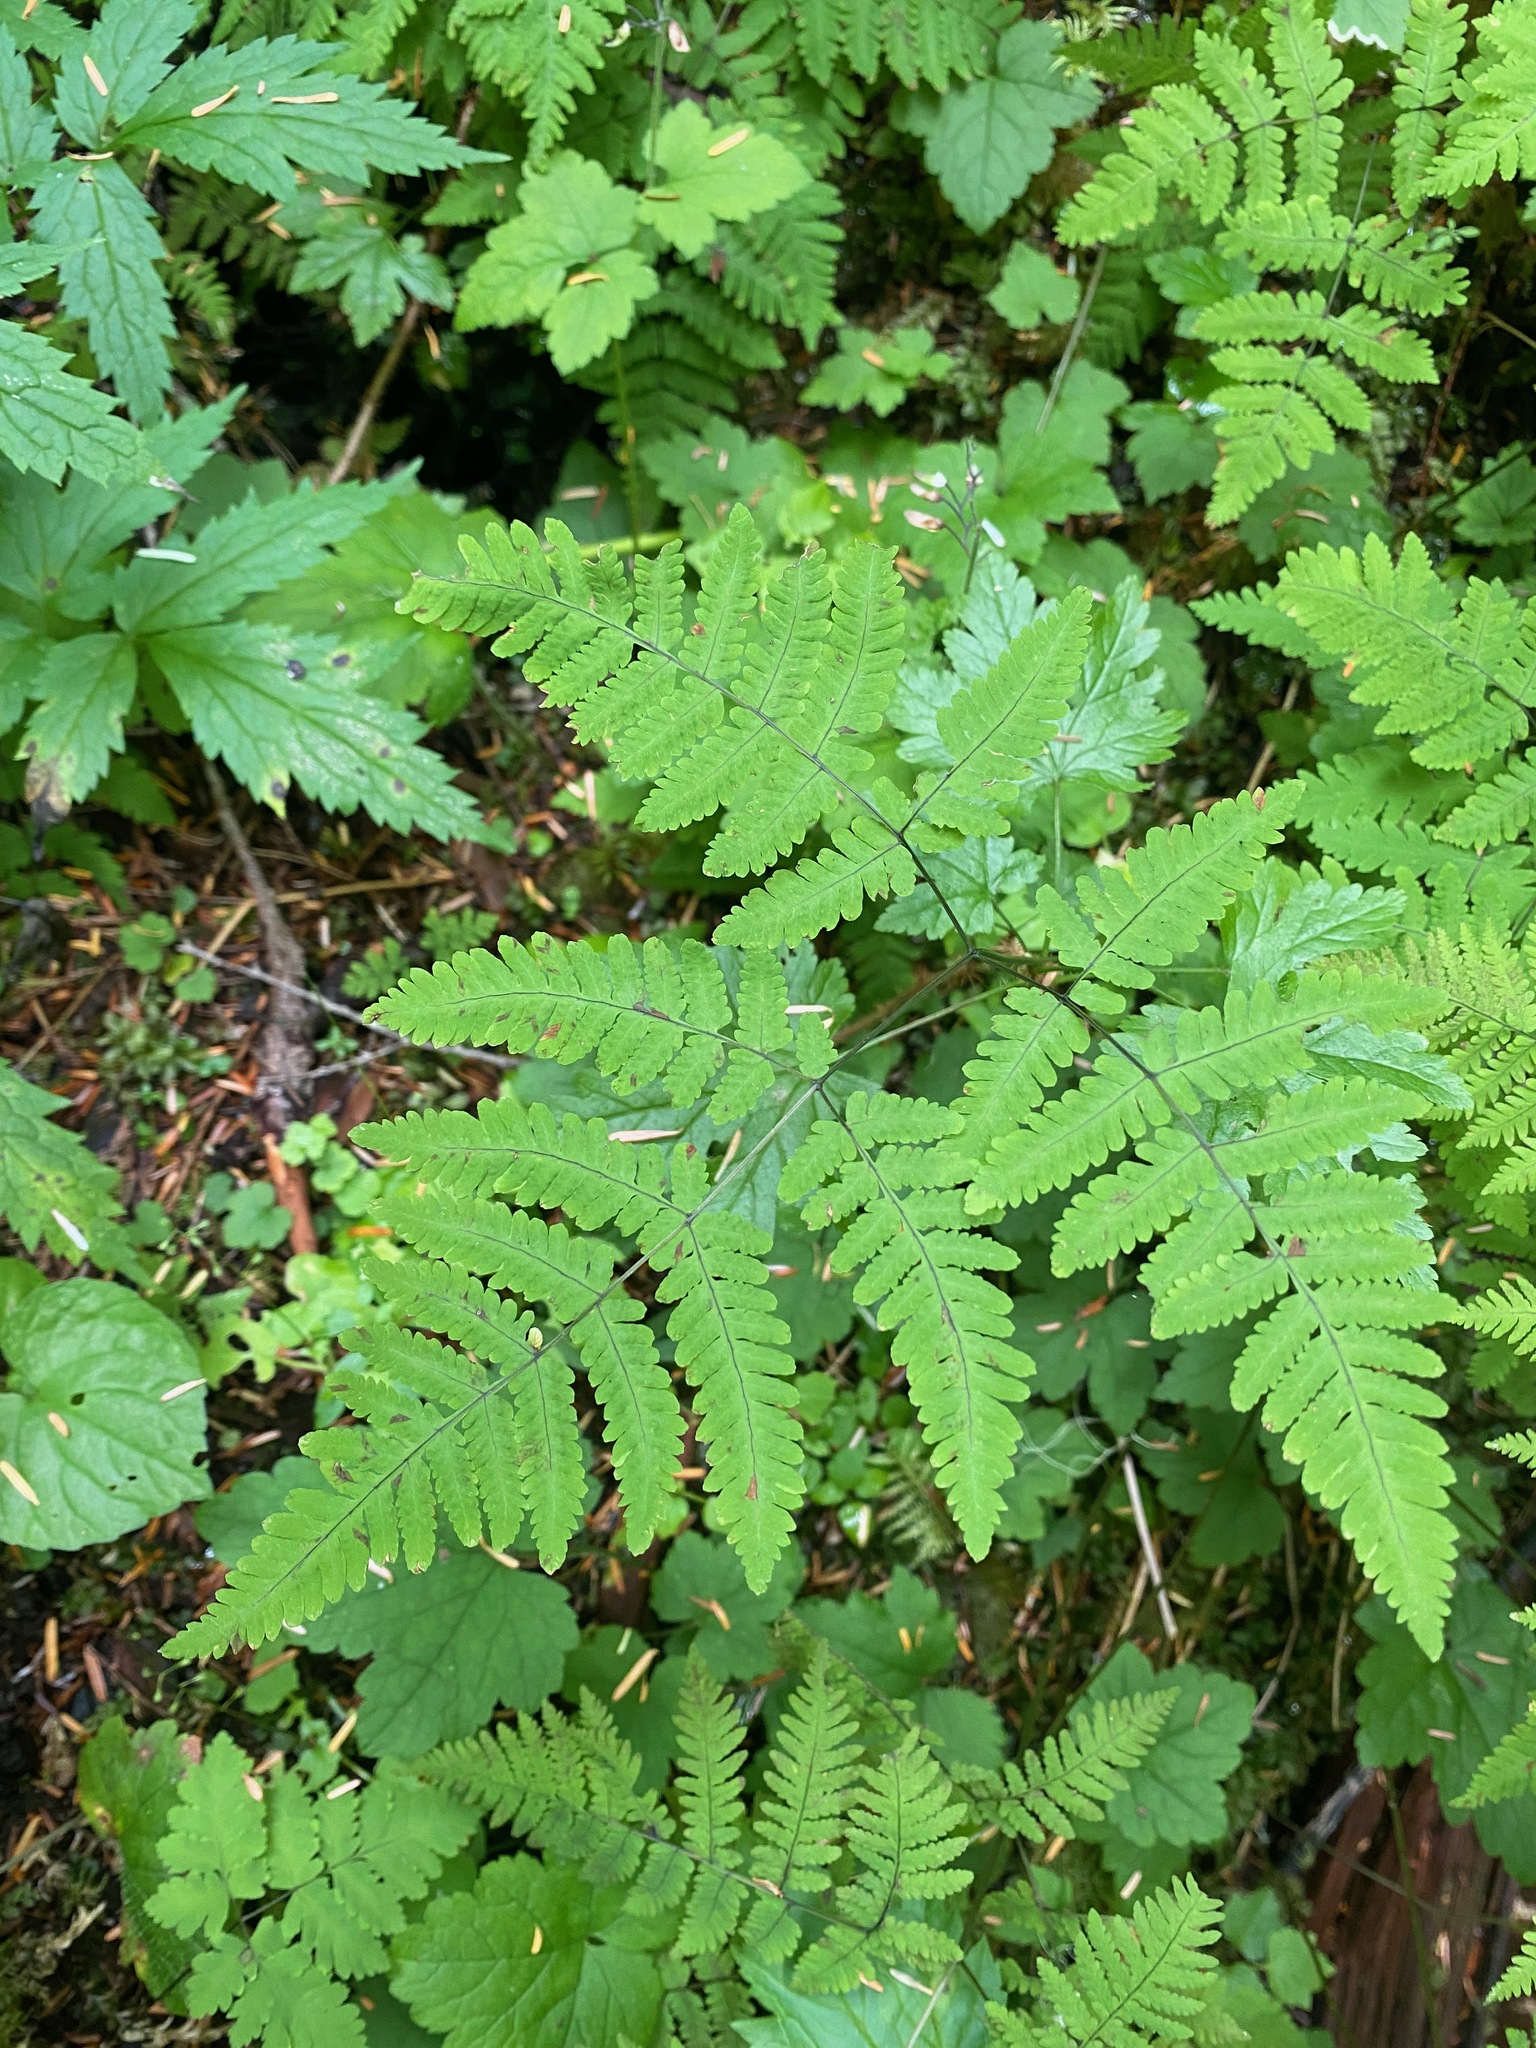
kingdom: Plantae
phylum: Tracheophyta
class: Polypodiopsida
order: Polypodiales
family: Cystopteridaceae
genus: Gymnocarpium
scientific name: Gymnocarpium dryopteris
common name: Oak fern
